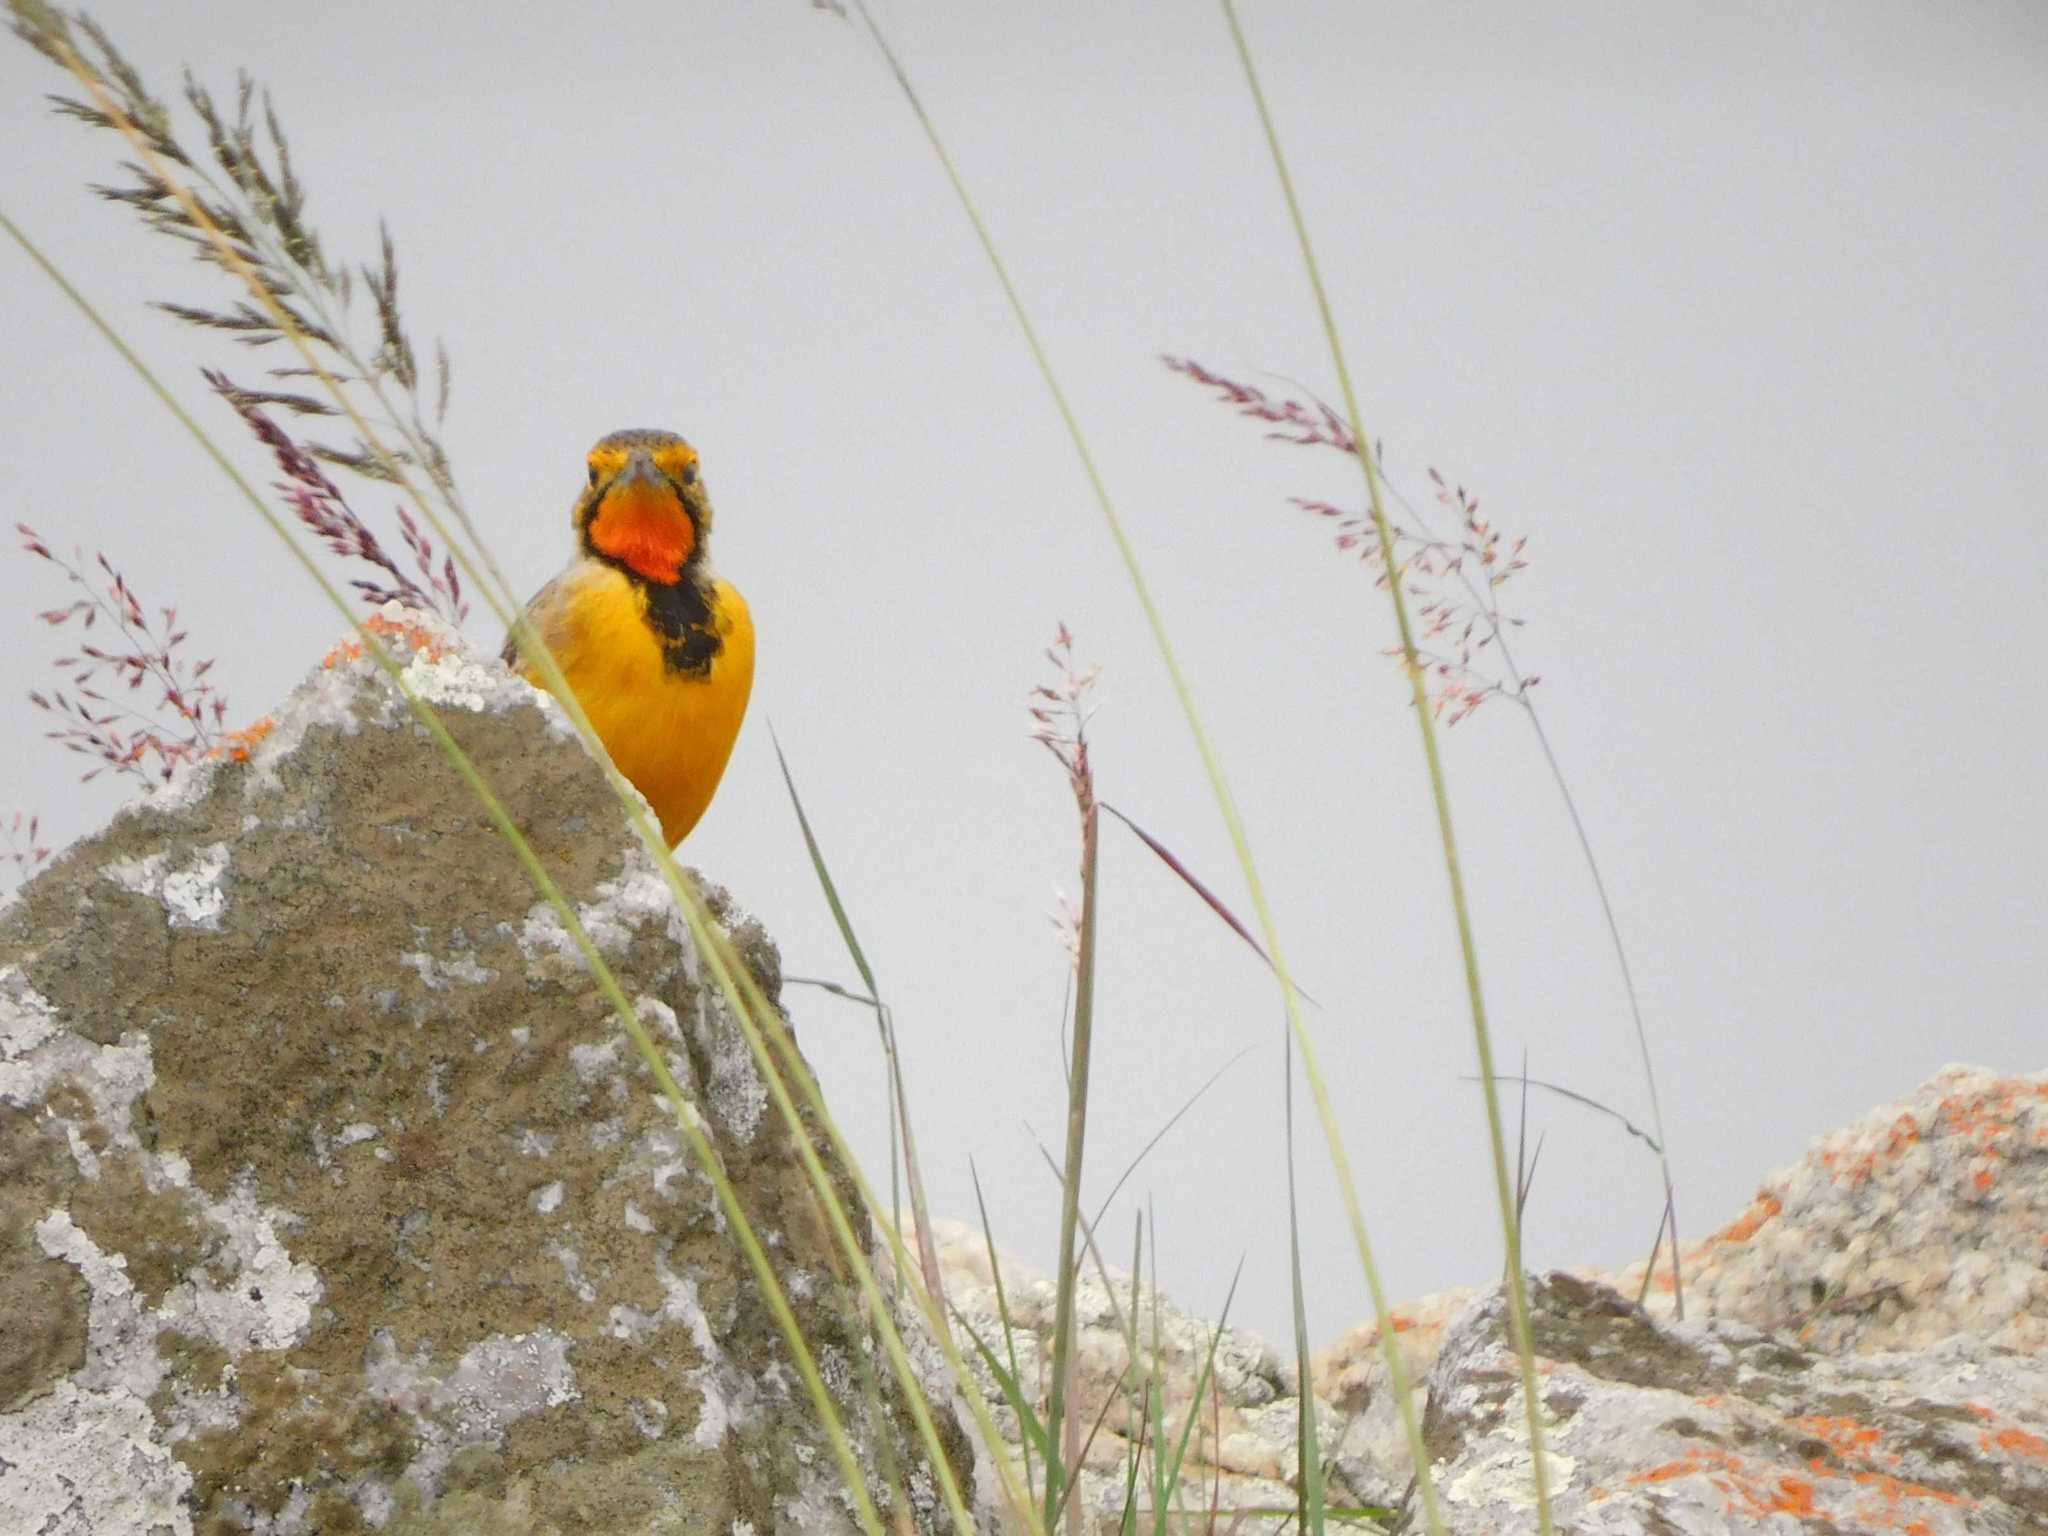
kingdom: Animalia
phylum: Chordata
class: Aves
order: Passeriformes
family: Motacillidae
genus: Macronyx
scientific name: Macronyx capensis
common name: Cape longclaw
